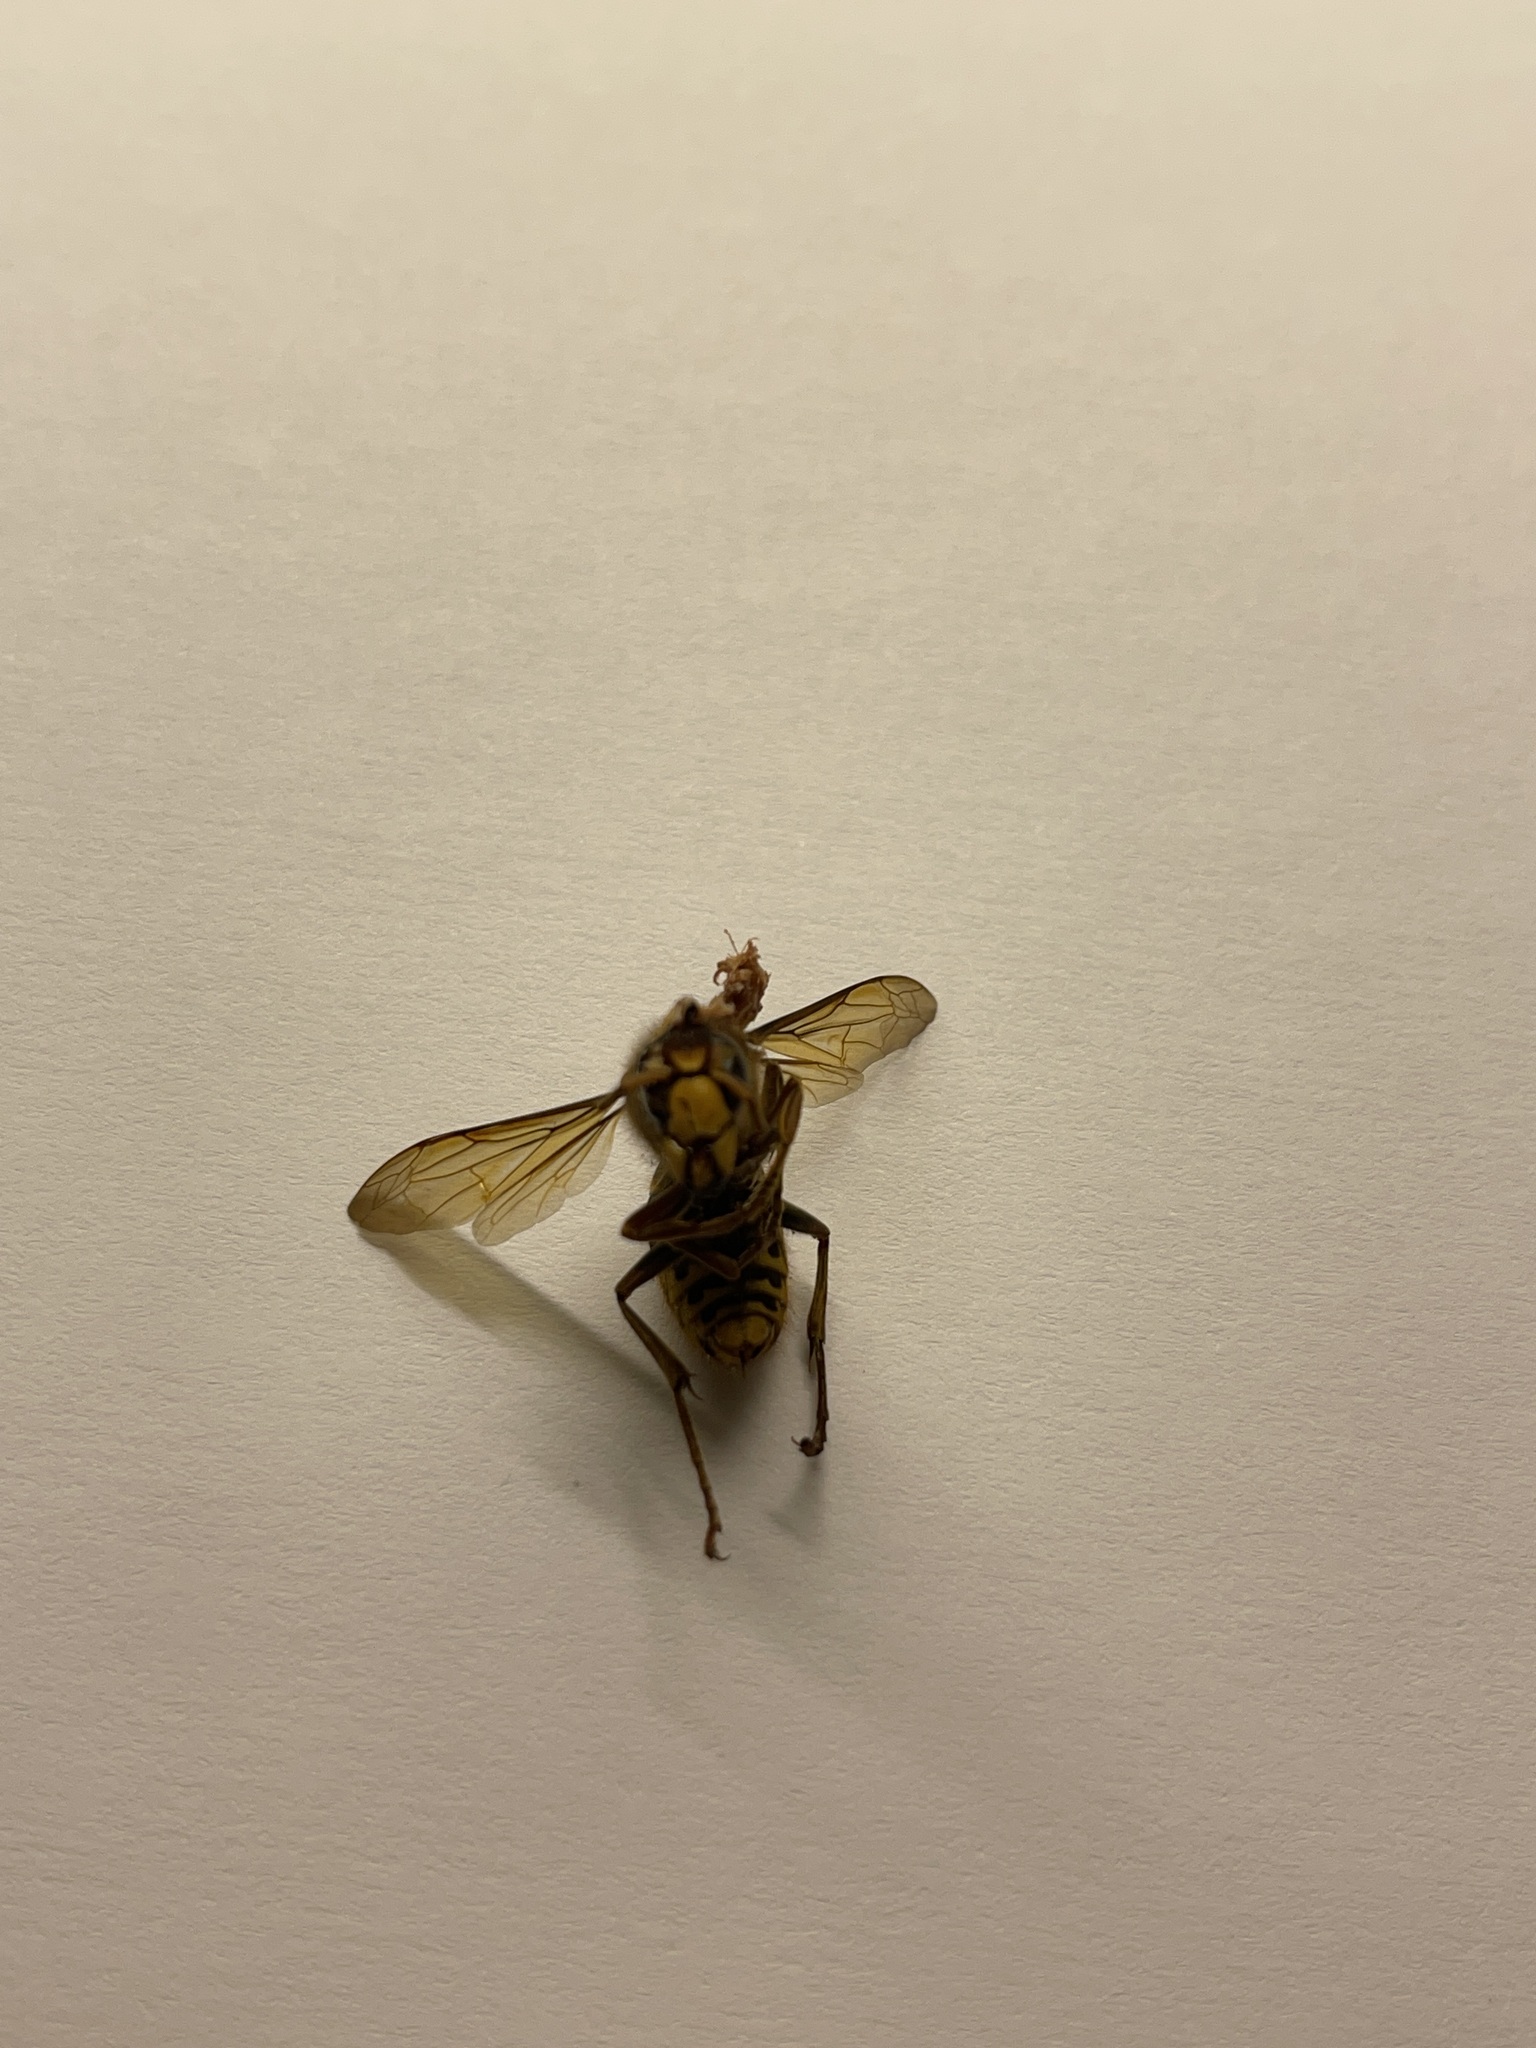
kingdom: Animalia
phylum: Arthropoda
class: Insecta
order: Hymenoptera
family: Vespidae
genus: Vespa
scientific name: Vespa crabro
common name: Hornet
